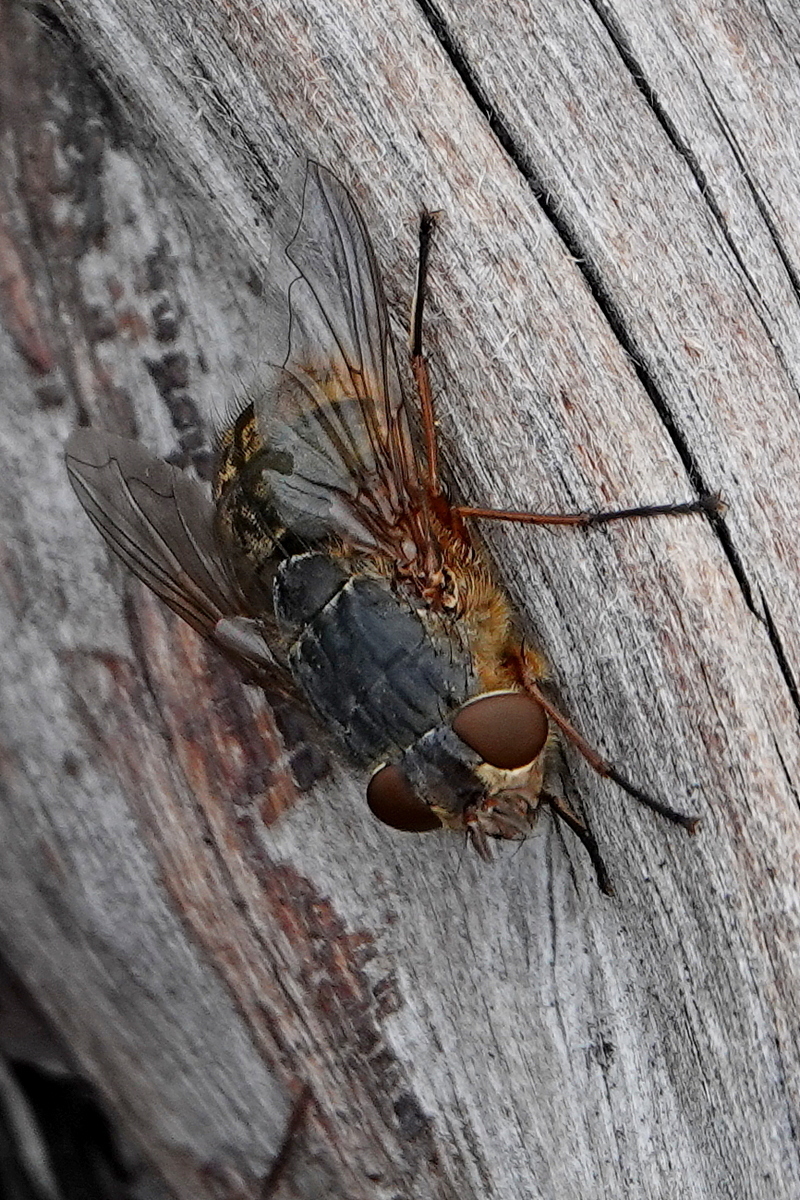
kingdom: Animalia
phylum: Arthropoda
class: Insecta
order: Diptera
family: Calliphoridae
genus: Calliphora
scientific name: Calliphora stygia
